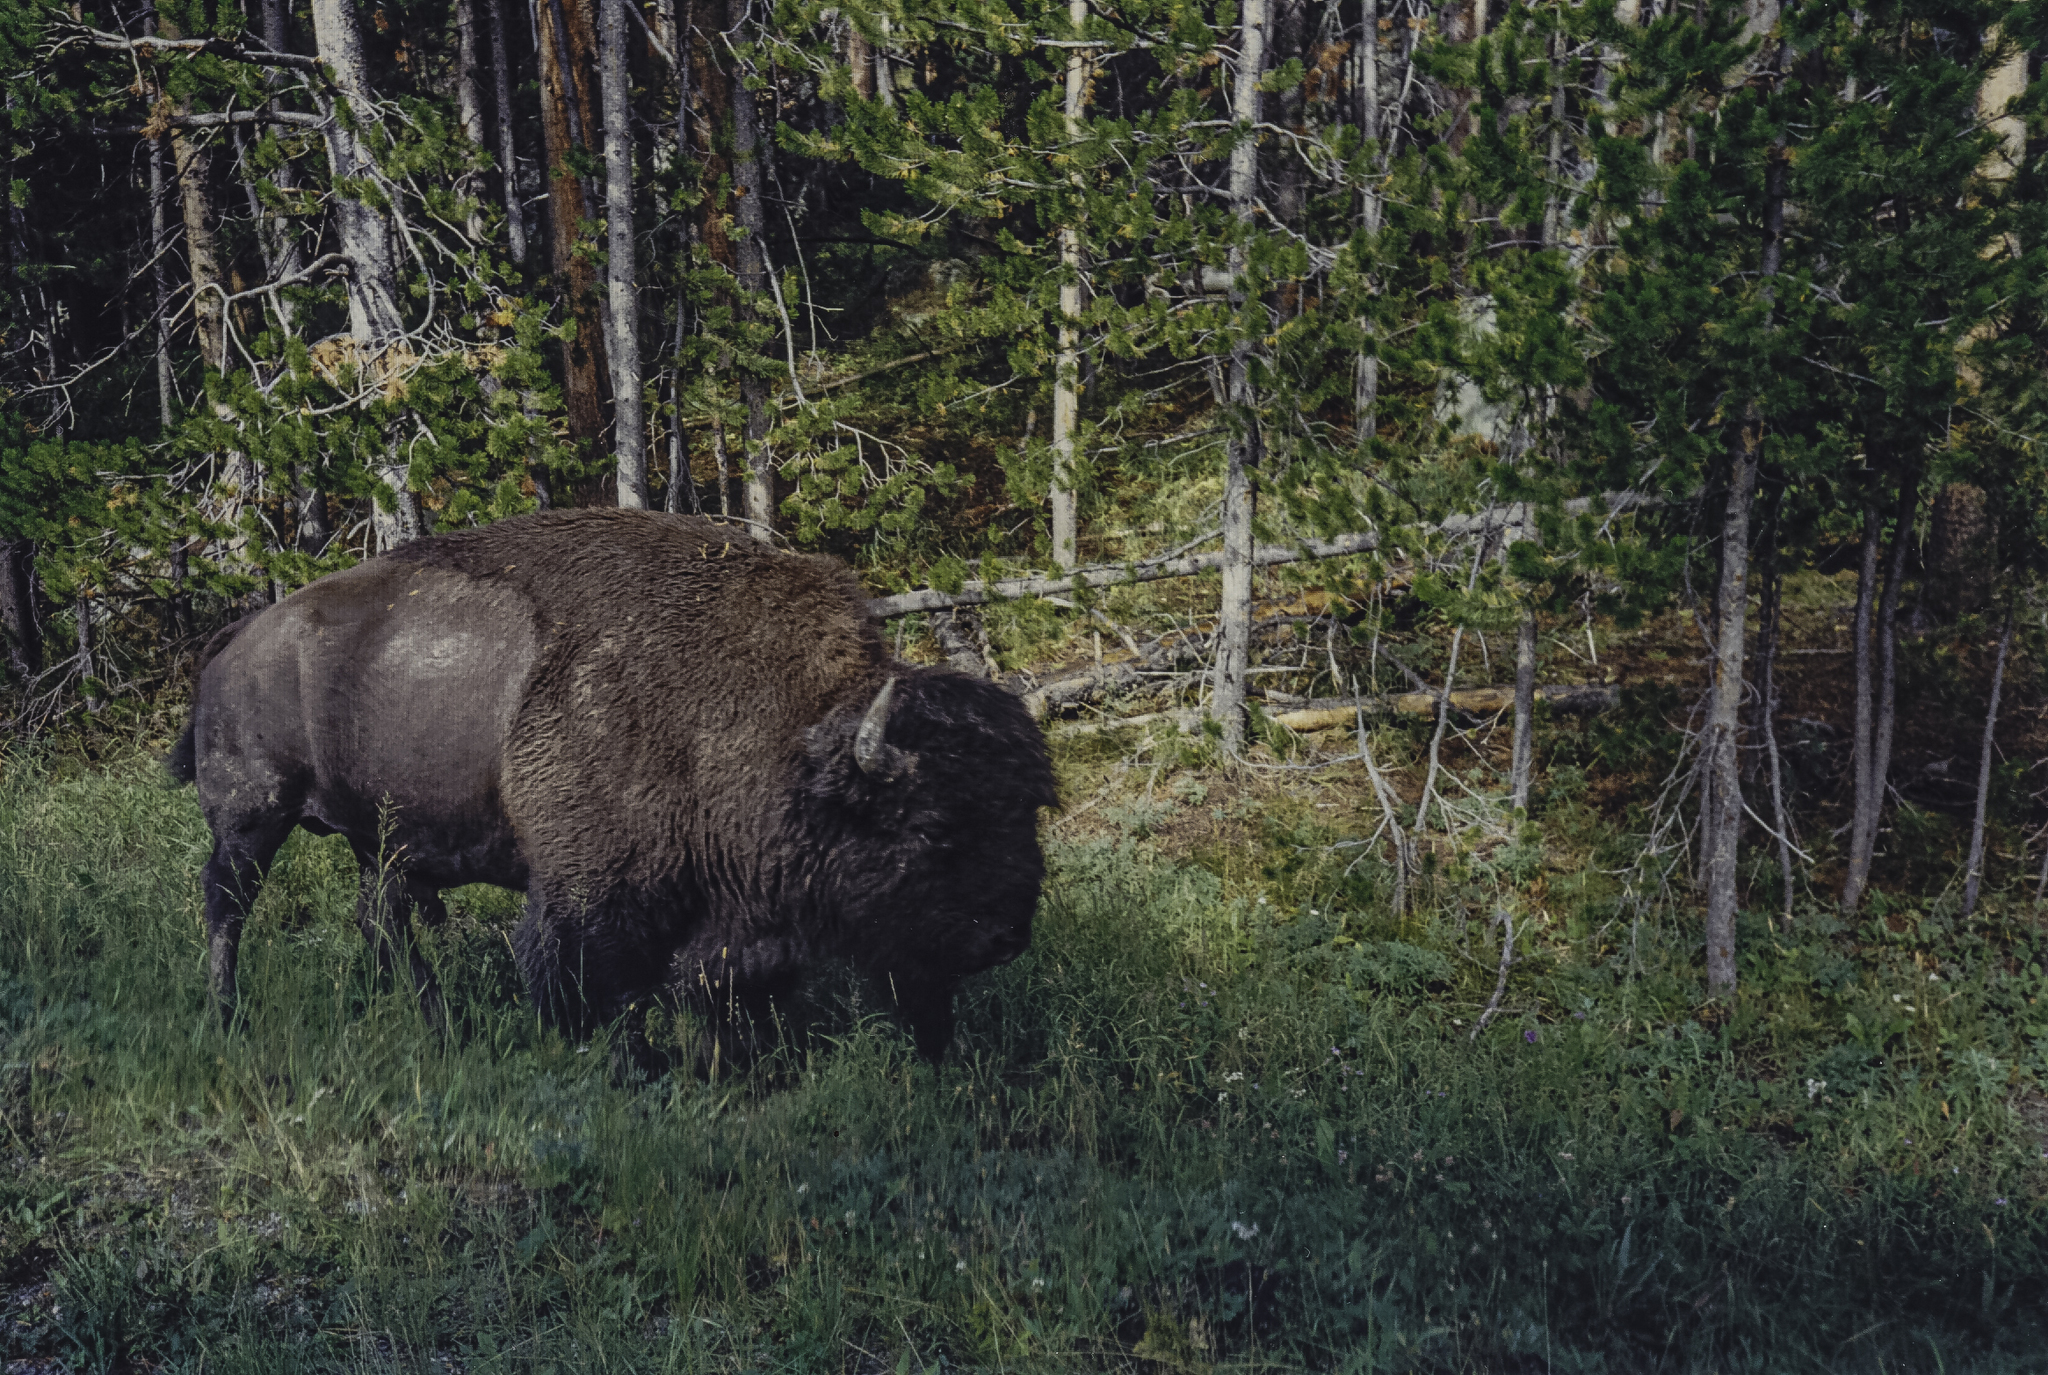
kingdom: Animalia
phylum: Chordata
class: Mammalia
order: Artiodactyla
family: Bovidae
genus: Bison
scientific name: Bison bison
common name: American bison
